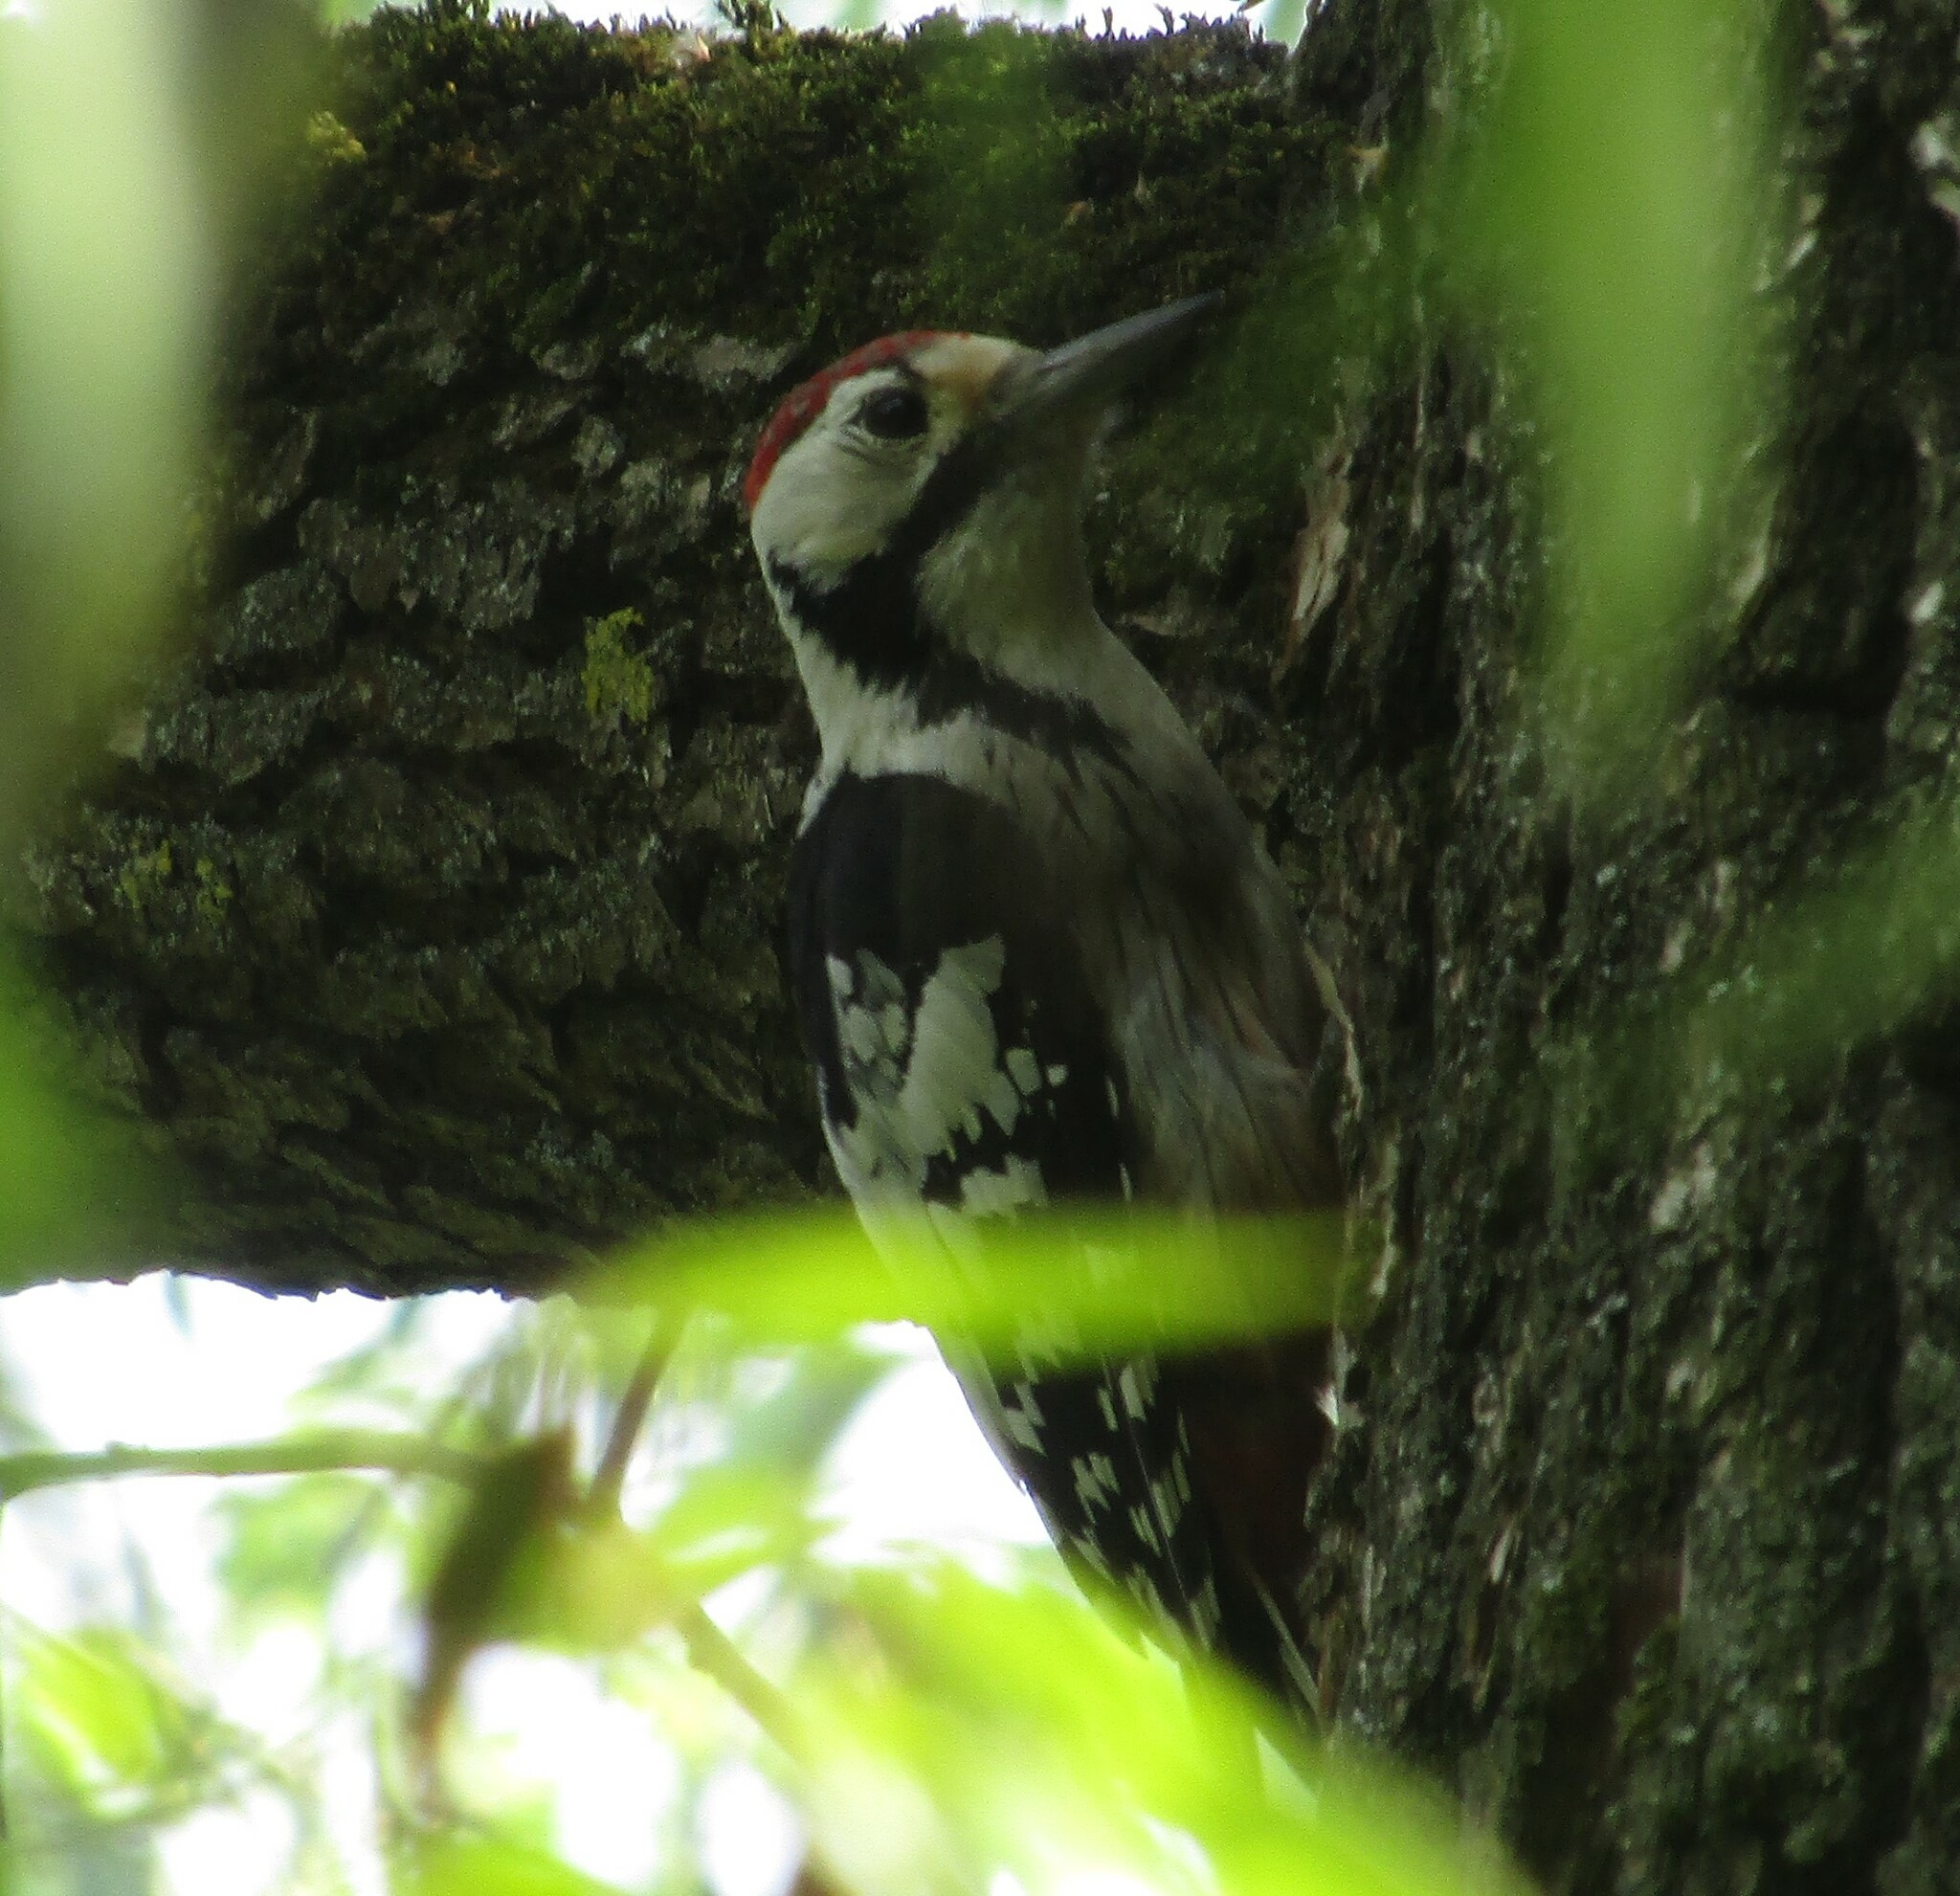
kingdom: Animalia
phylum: Chordata
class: Aves
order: Piciformes
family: Picidae
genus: Dendrocopos
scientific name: Dendrocopos leucotos
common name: White-backed woodpecker
